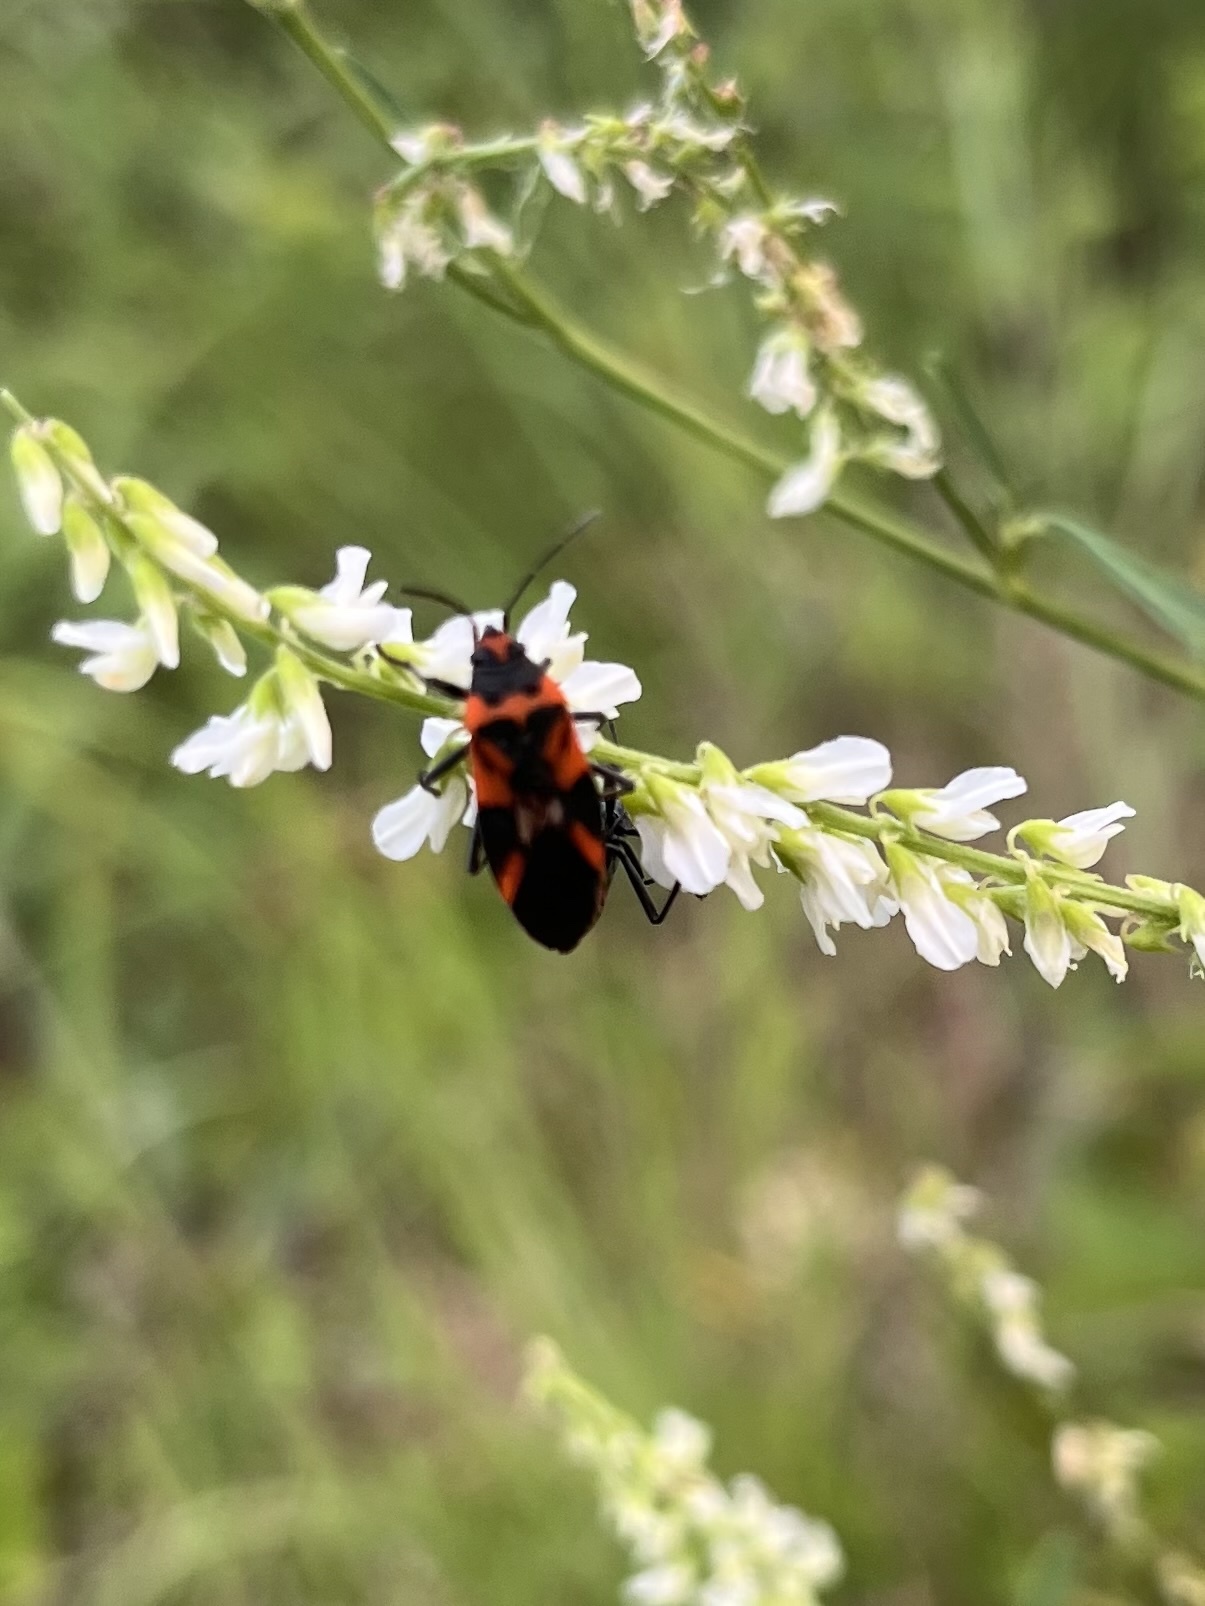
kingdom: Animalia
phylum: Arthropoda
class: Insecta
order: Hemiptera
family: Lygaeidae
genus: Lygaeus
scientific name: Lygaeus turcicus
